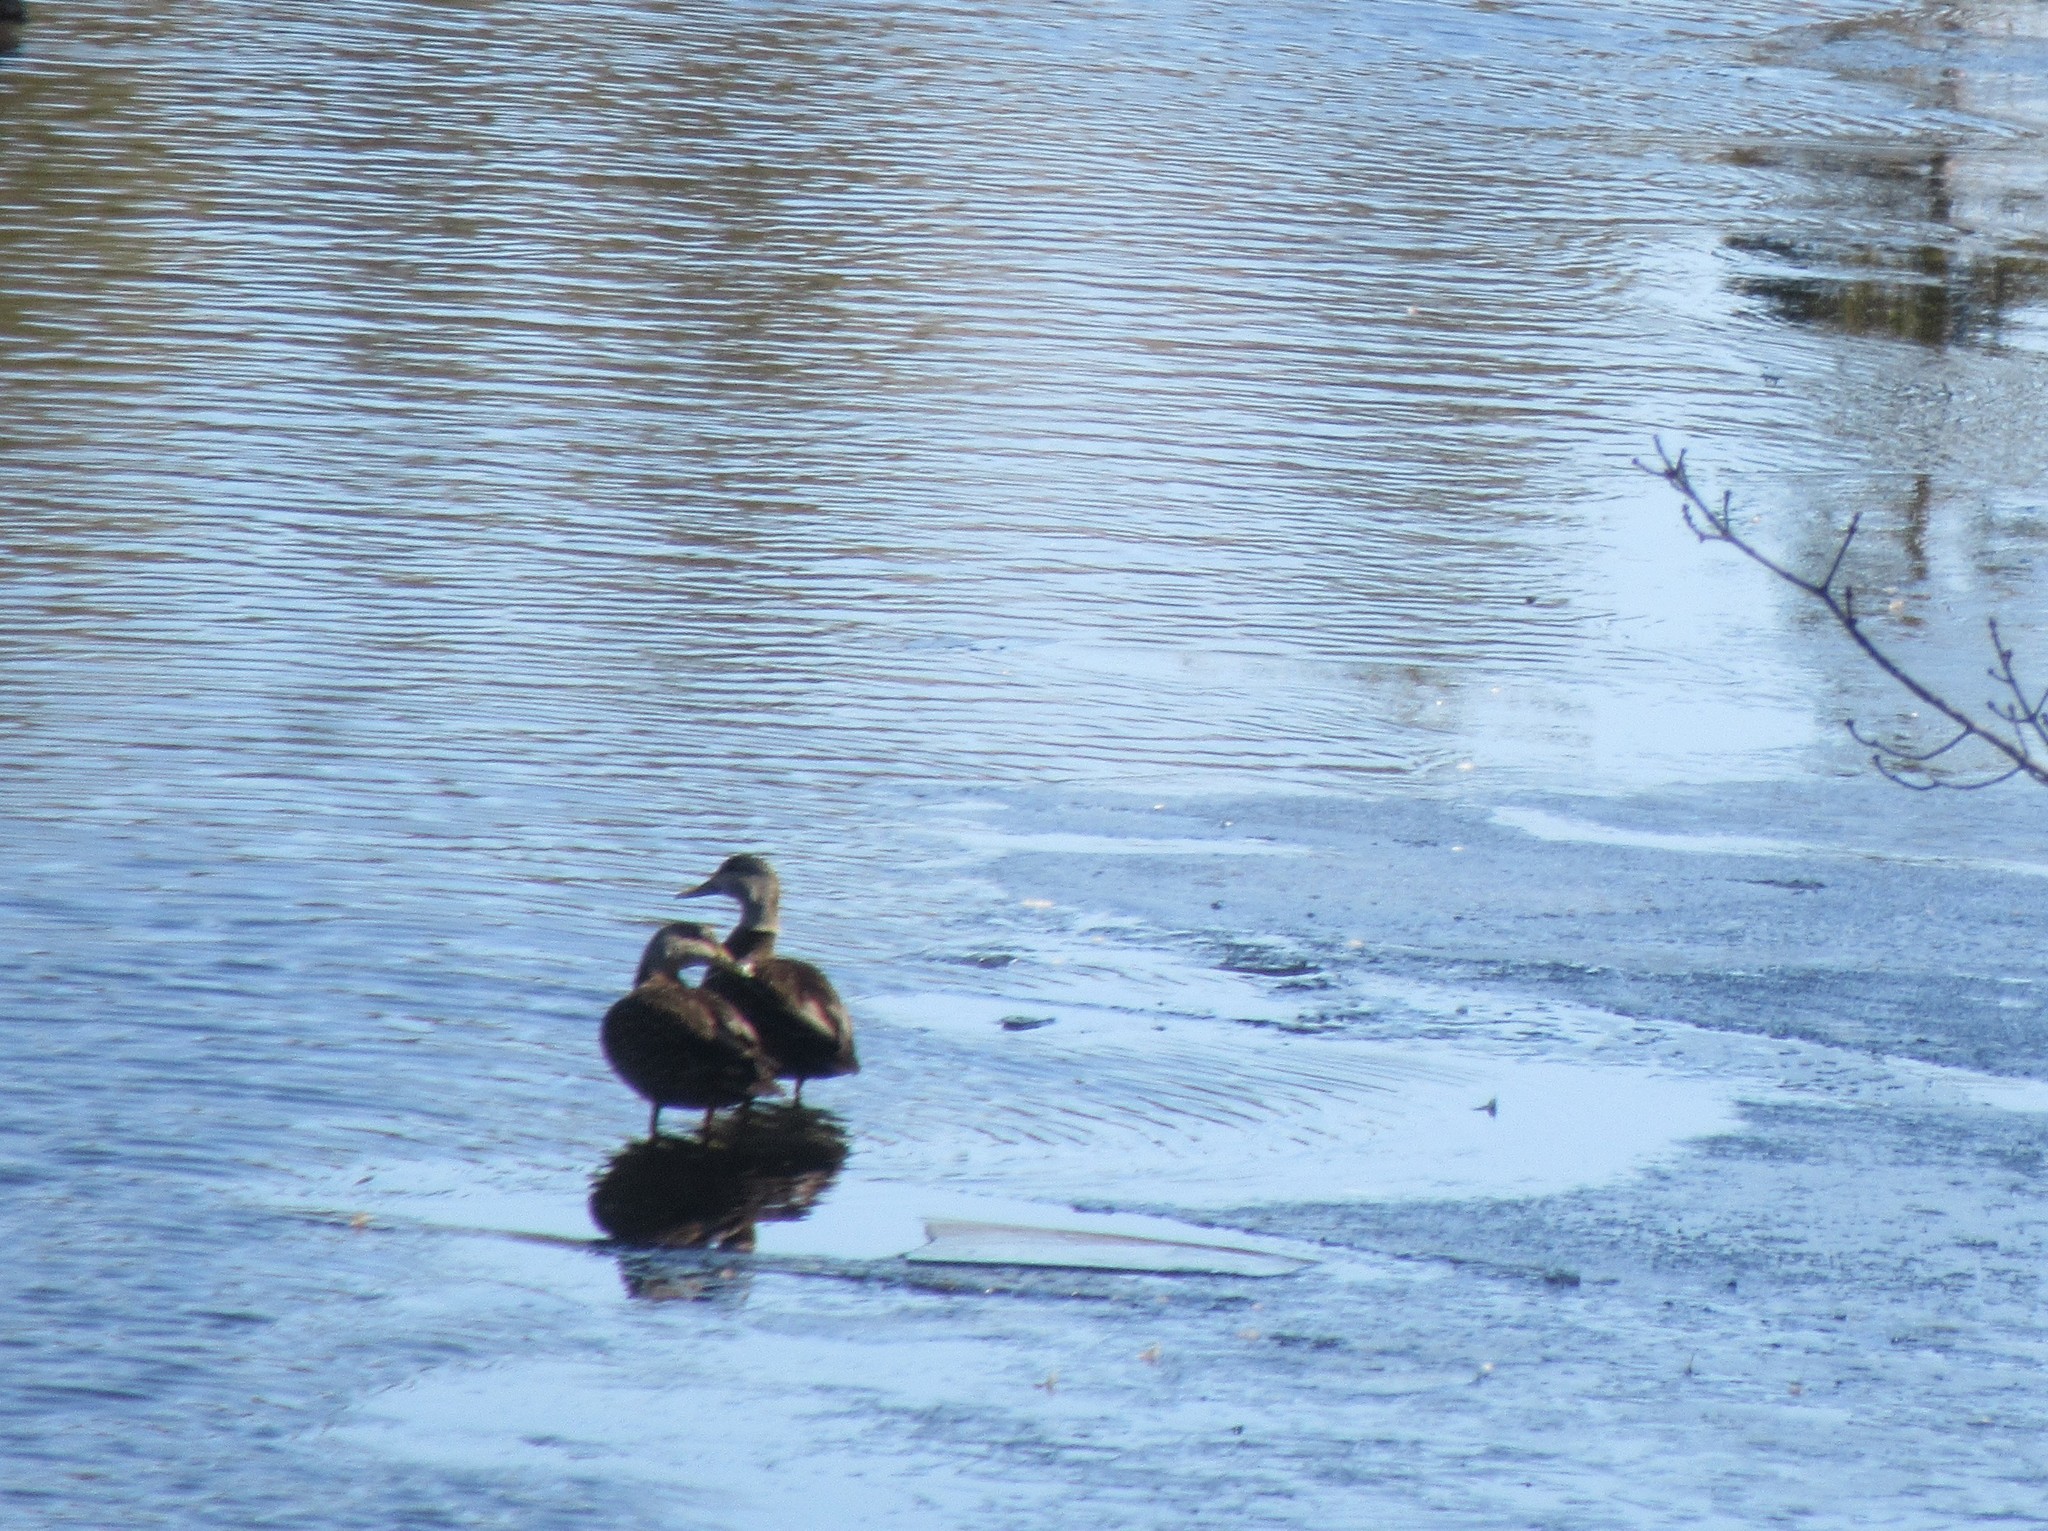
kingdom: Animalia
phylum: Chordata
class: Aves
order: Anseriformes
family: Anatidae
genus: Anas
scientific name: Anas rubripes
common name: American black duck
